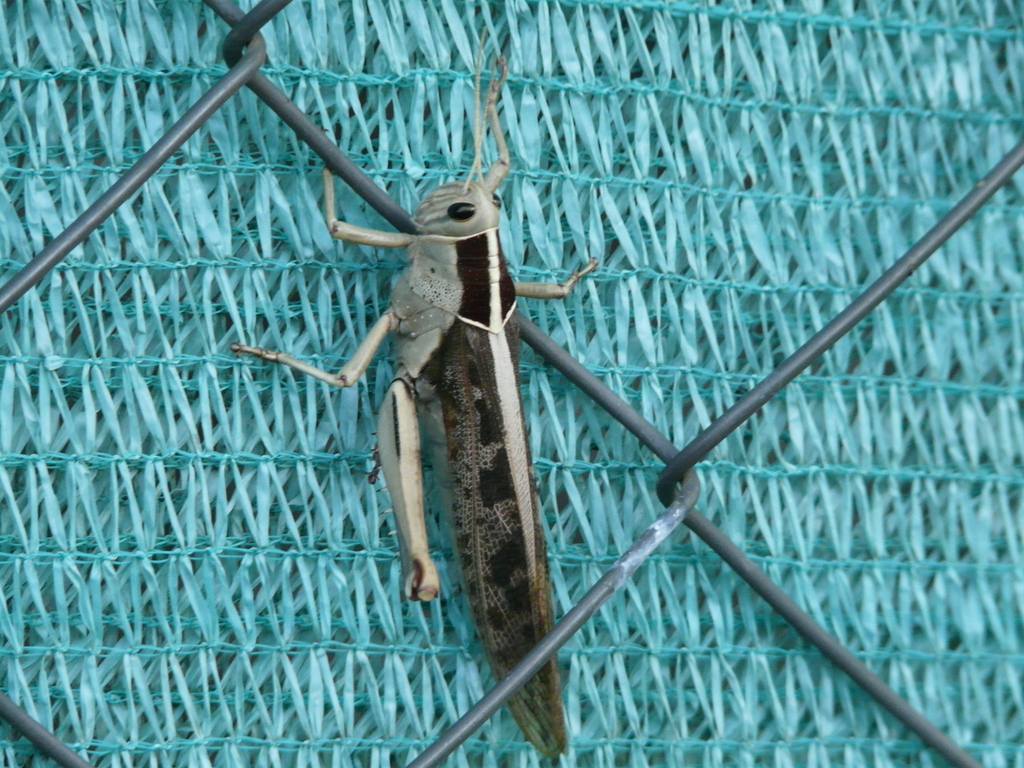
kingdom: Animalia
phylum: Arthropoda
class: Insecta
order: Orthoptera
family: Acrididae
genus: Acanthacris
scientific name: Acanthacris ruficornis
